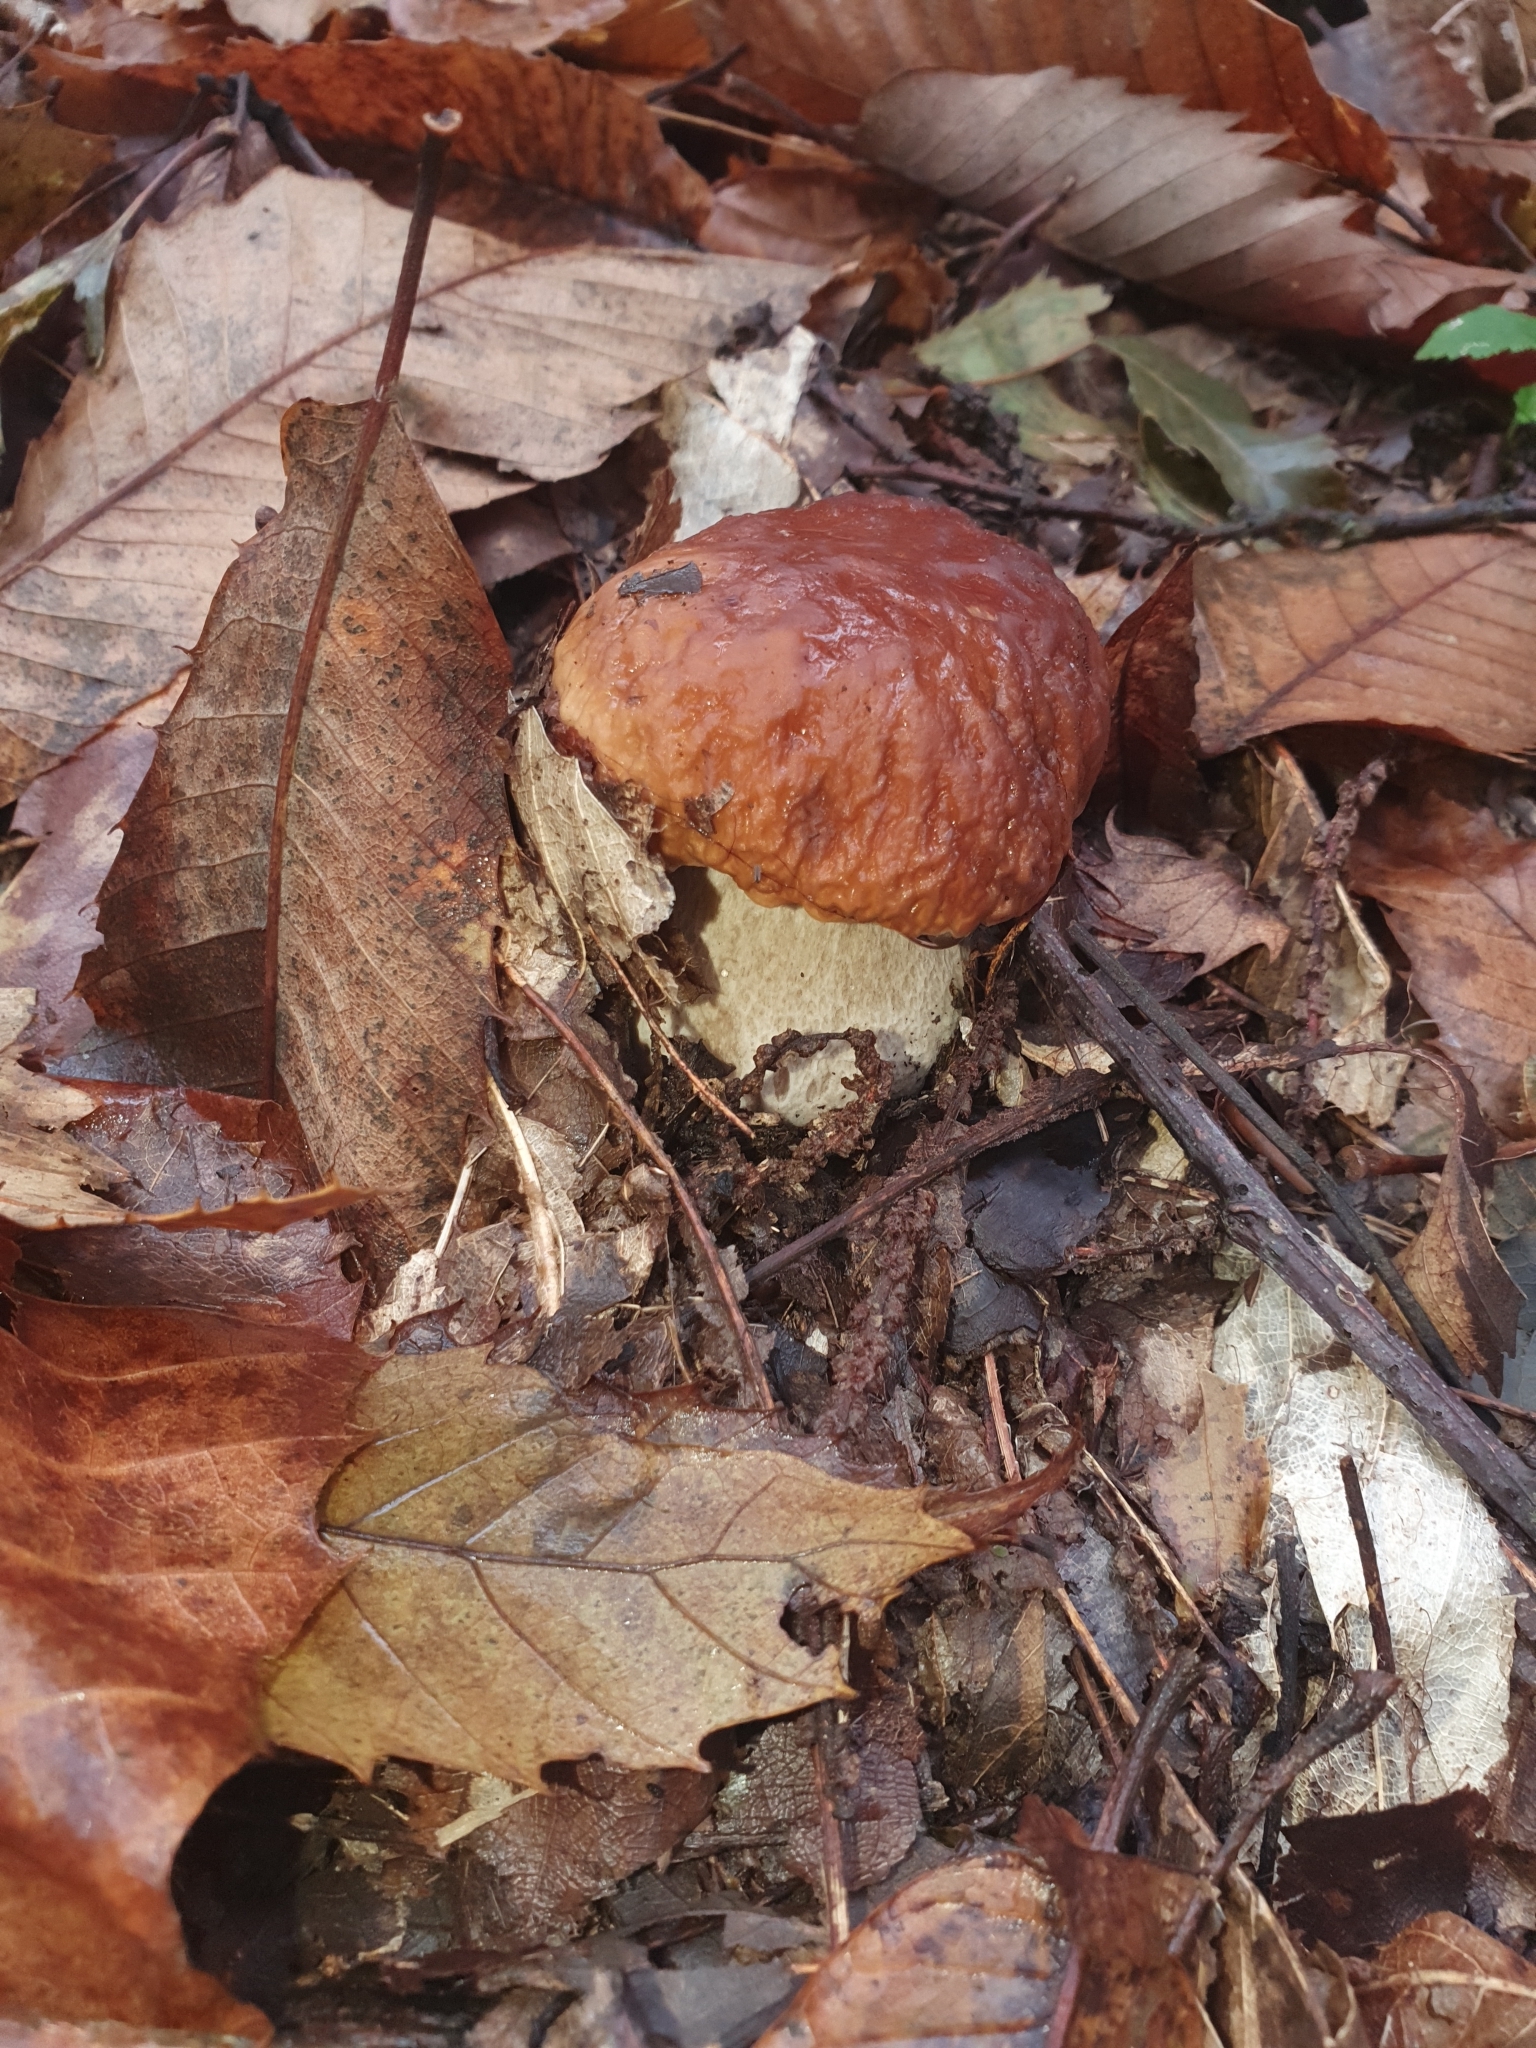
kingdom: Fungi
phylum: Basidiomycota
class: Agaricomycetes
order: Boletales
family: Boletaceae
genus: Boletus
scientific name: Boletus edulis
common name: Cep
